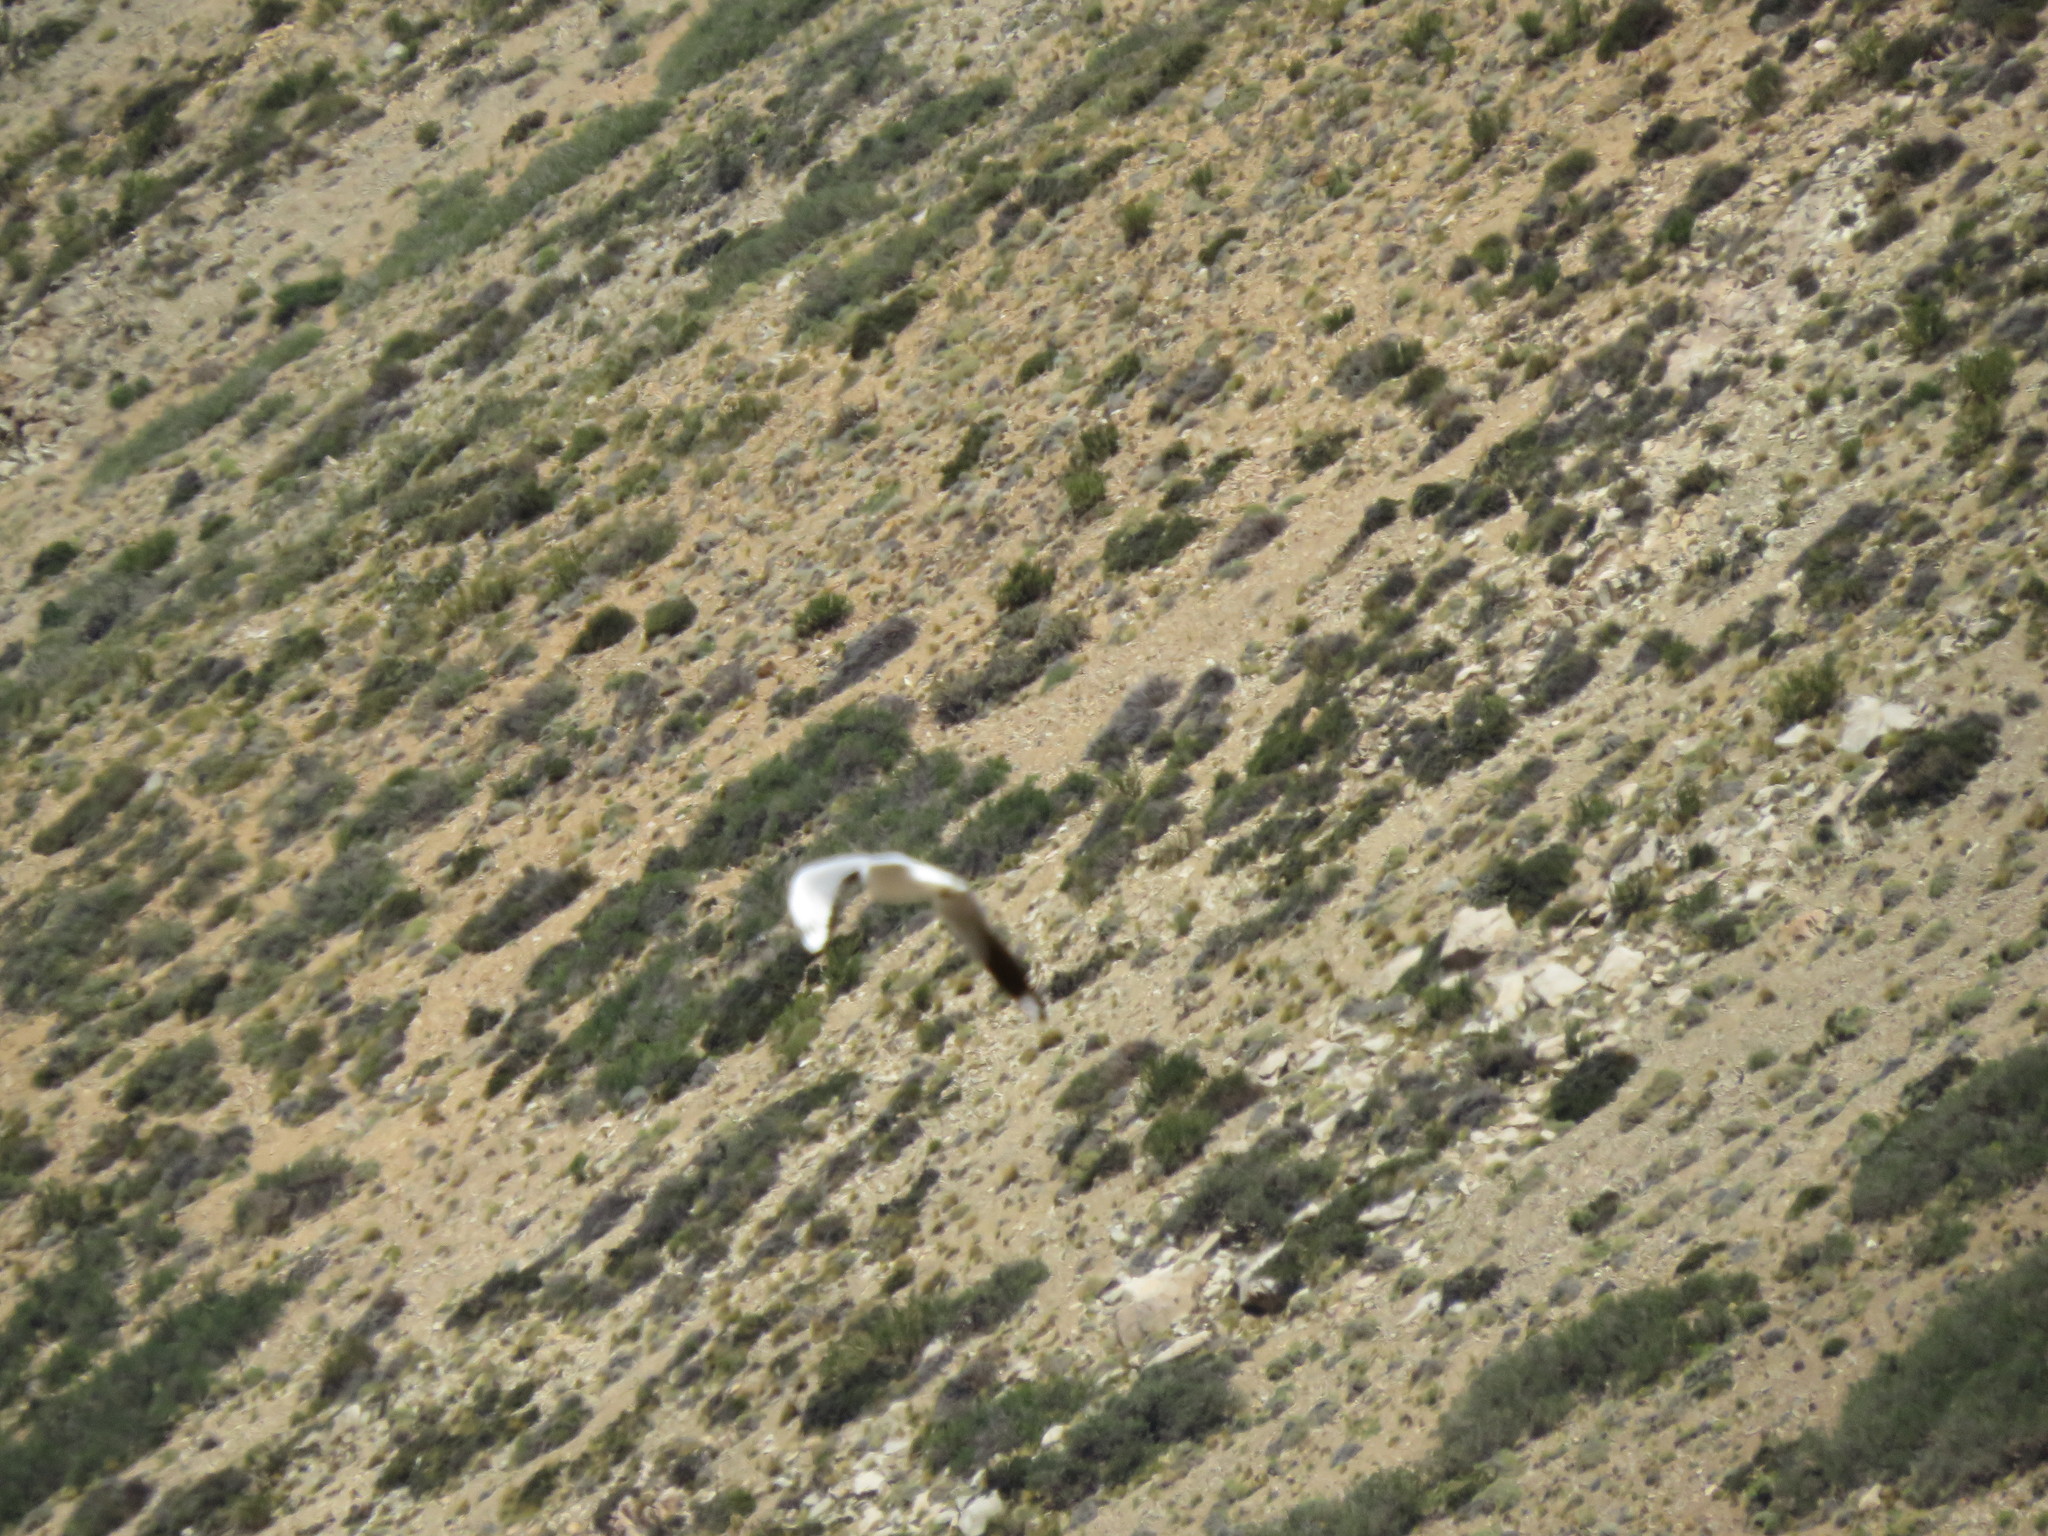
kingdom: Animalia
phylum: Chordata
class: Aves
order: Charadriiformes
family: Laridae
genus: Chroicocephalus
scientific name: Chroicocephalus serranus
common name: Andean gull
